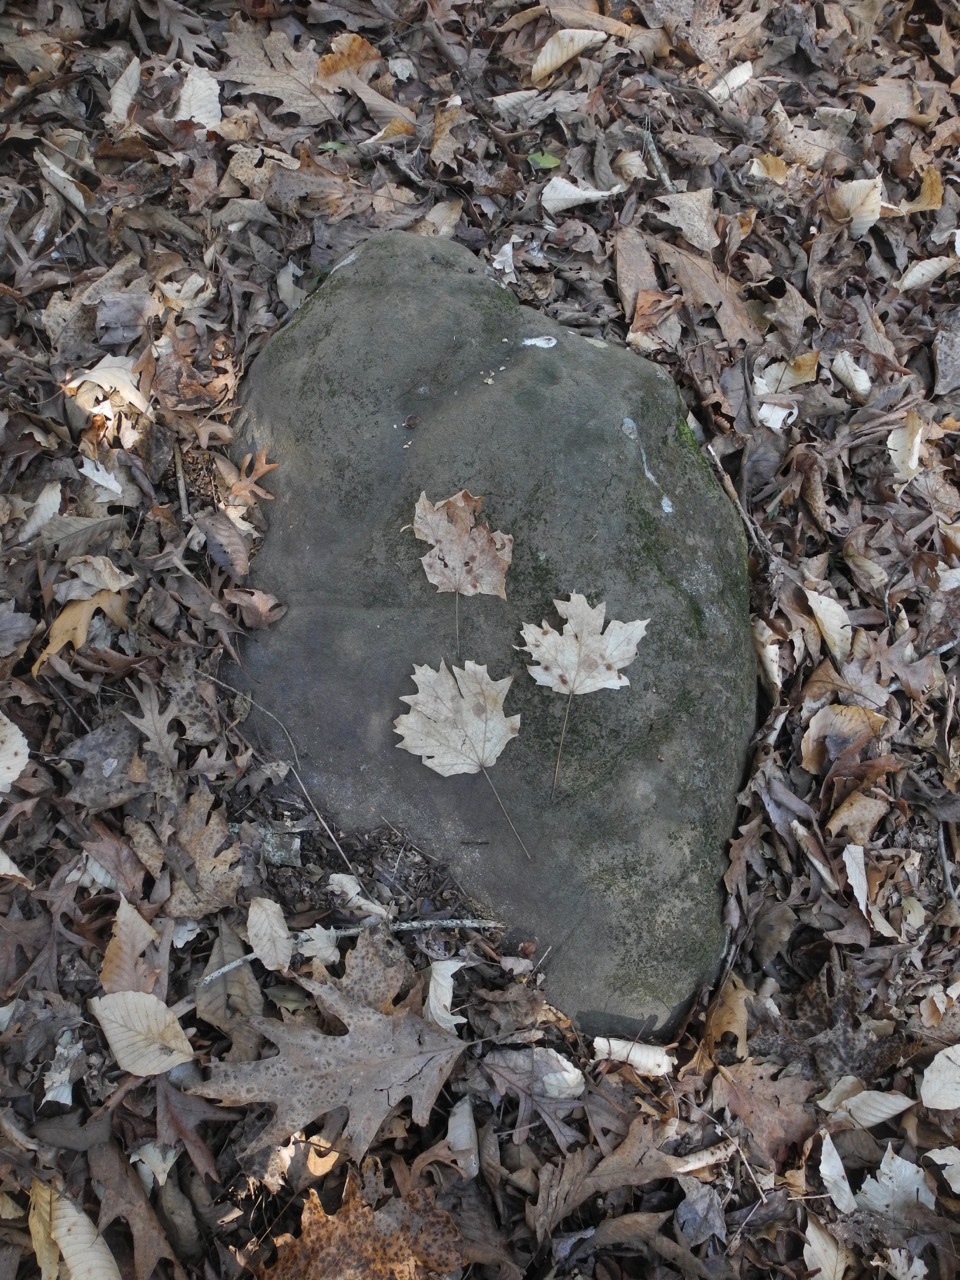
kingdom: Plantae
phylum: Tracheophyta
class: Magnoliopsida
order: Sapindales
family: Sapindaceae
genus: Acer
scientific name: Acer floridanum
